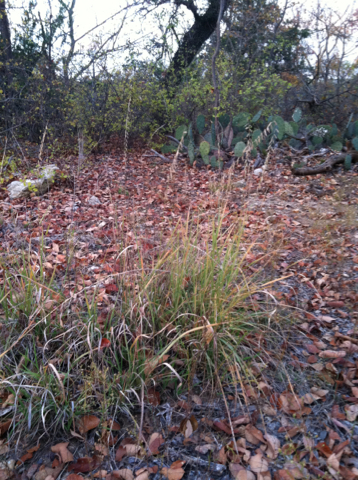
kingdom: Plantae
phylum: Tracheophyta
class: Liliopsida
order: Poales
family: Poaceae
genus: Bouteloua
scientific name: Bouteloua curtipendula
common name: Side-oats grama
